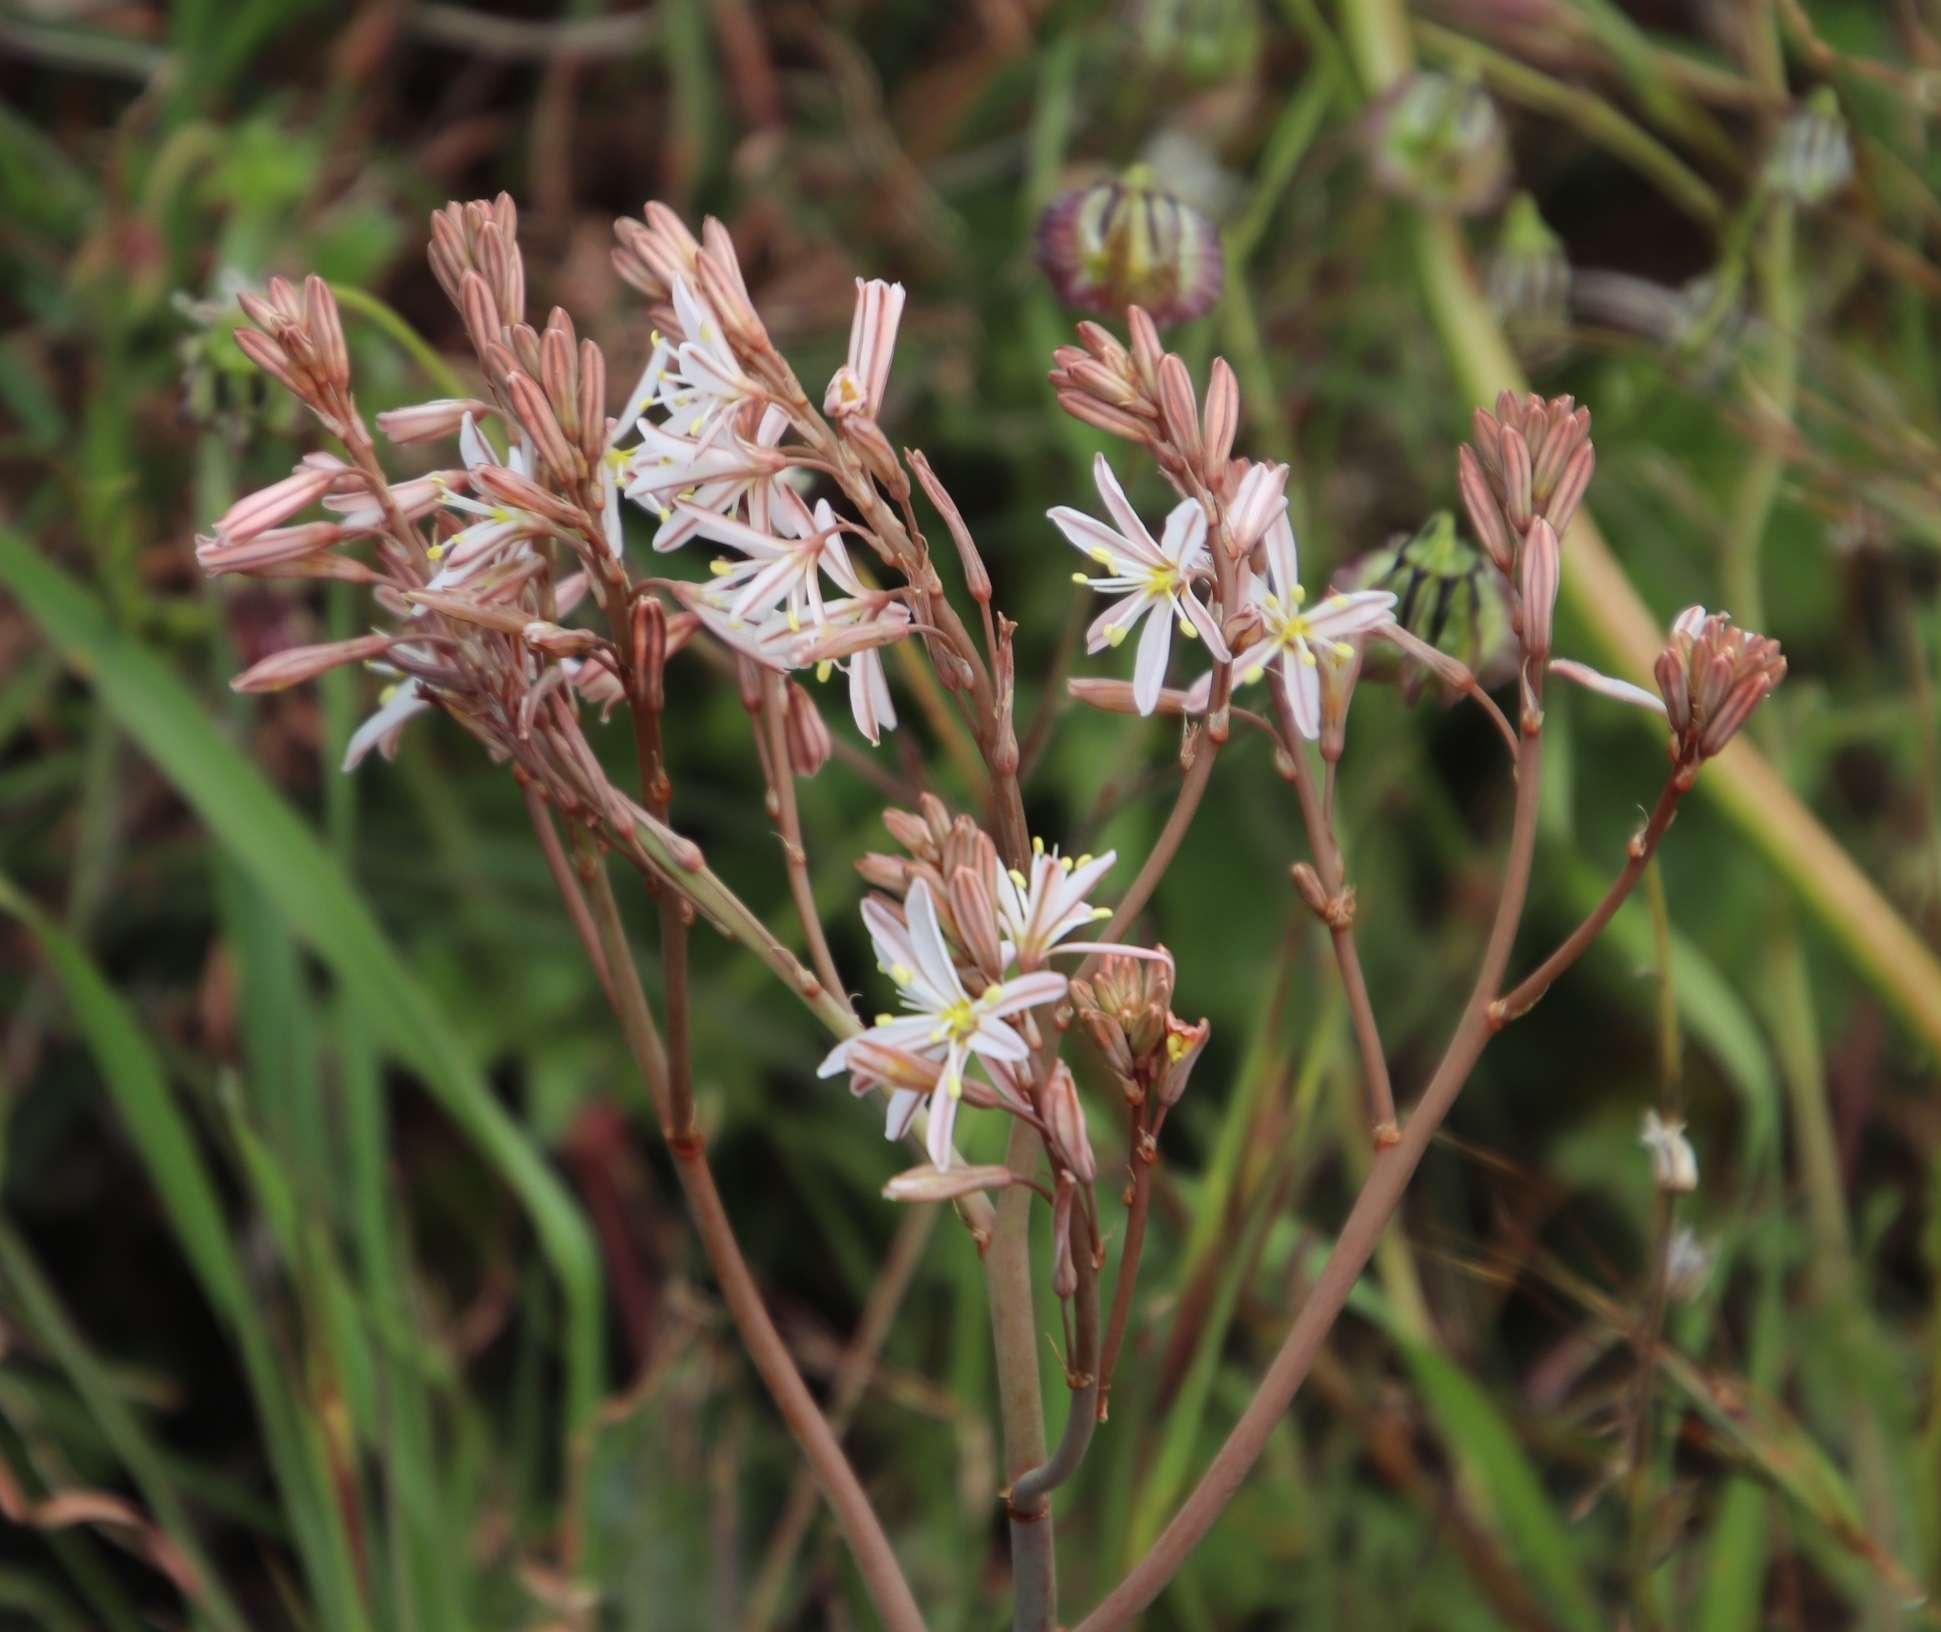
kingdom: Plantae
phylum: Tracheophyta
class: Liliopsida
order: Asparagales
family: Asphodelaceae
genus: Trachyandra
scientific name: Trachyandra ciliata
